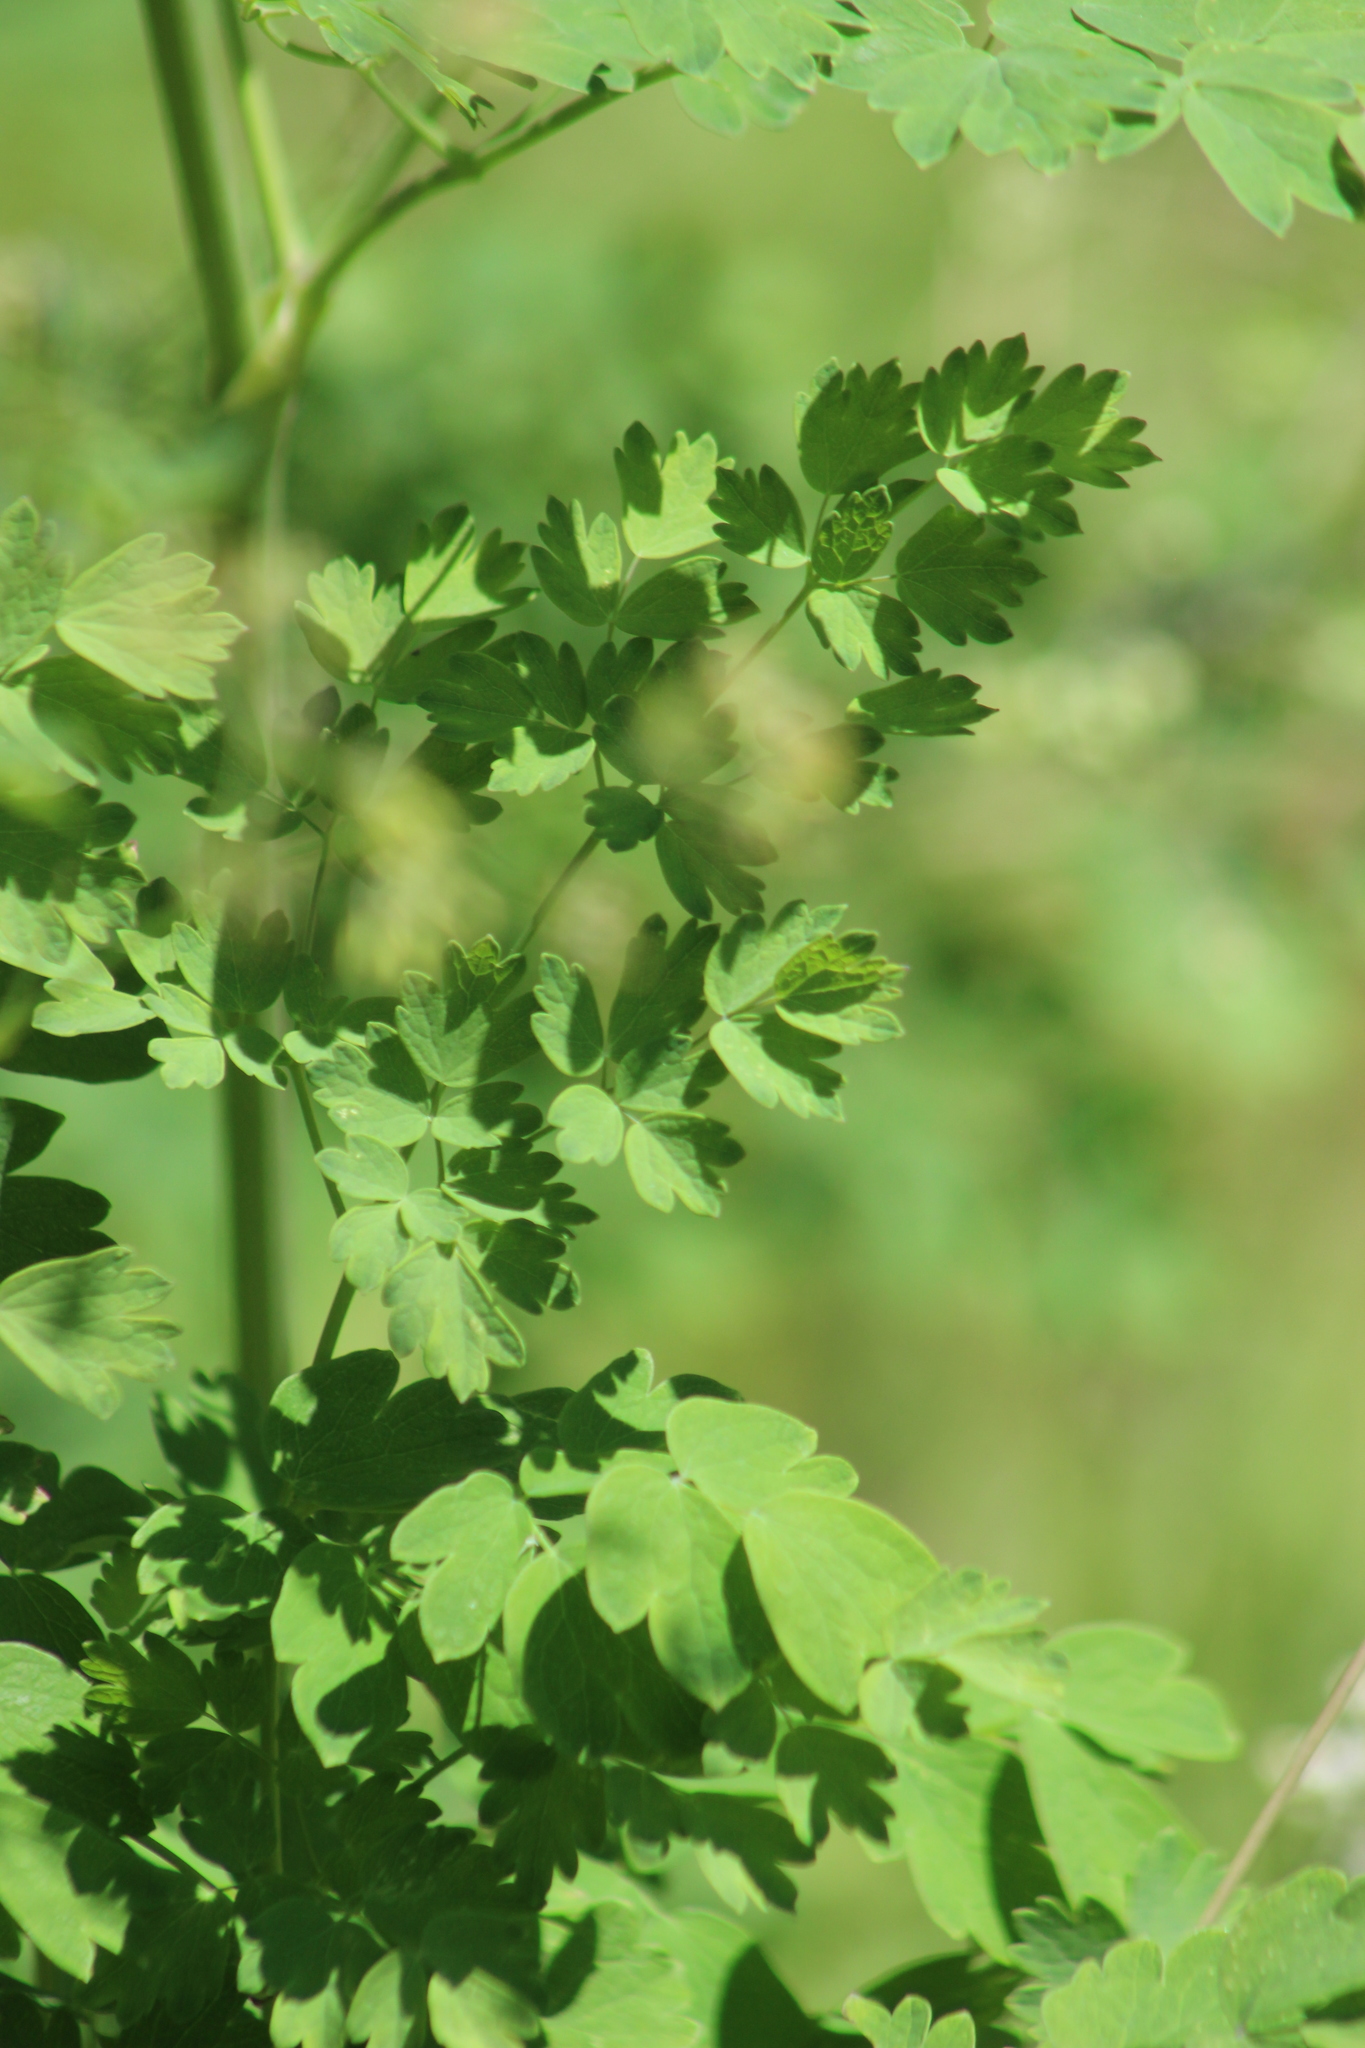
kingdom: Plantae
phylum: Tracheophyta
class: Magnoliopsida
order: Ranunculales
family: Ranunculaceae
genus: Thalictrum
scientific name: Thalictrum minus
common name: Lesser meadow-rue
